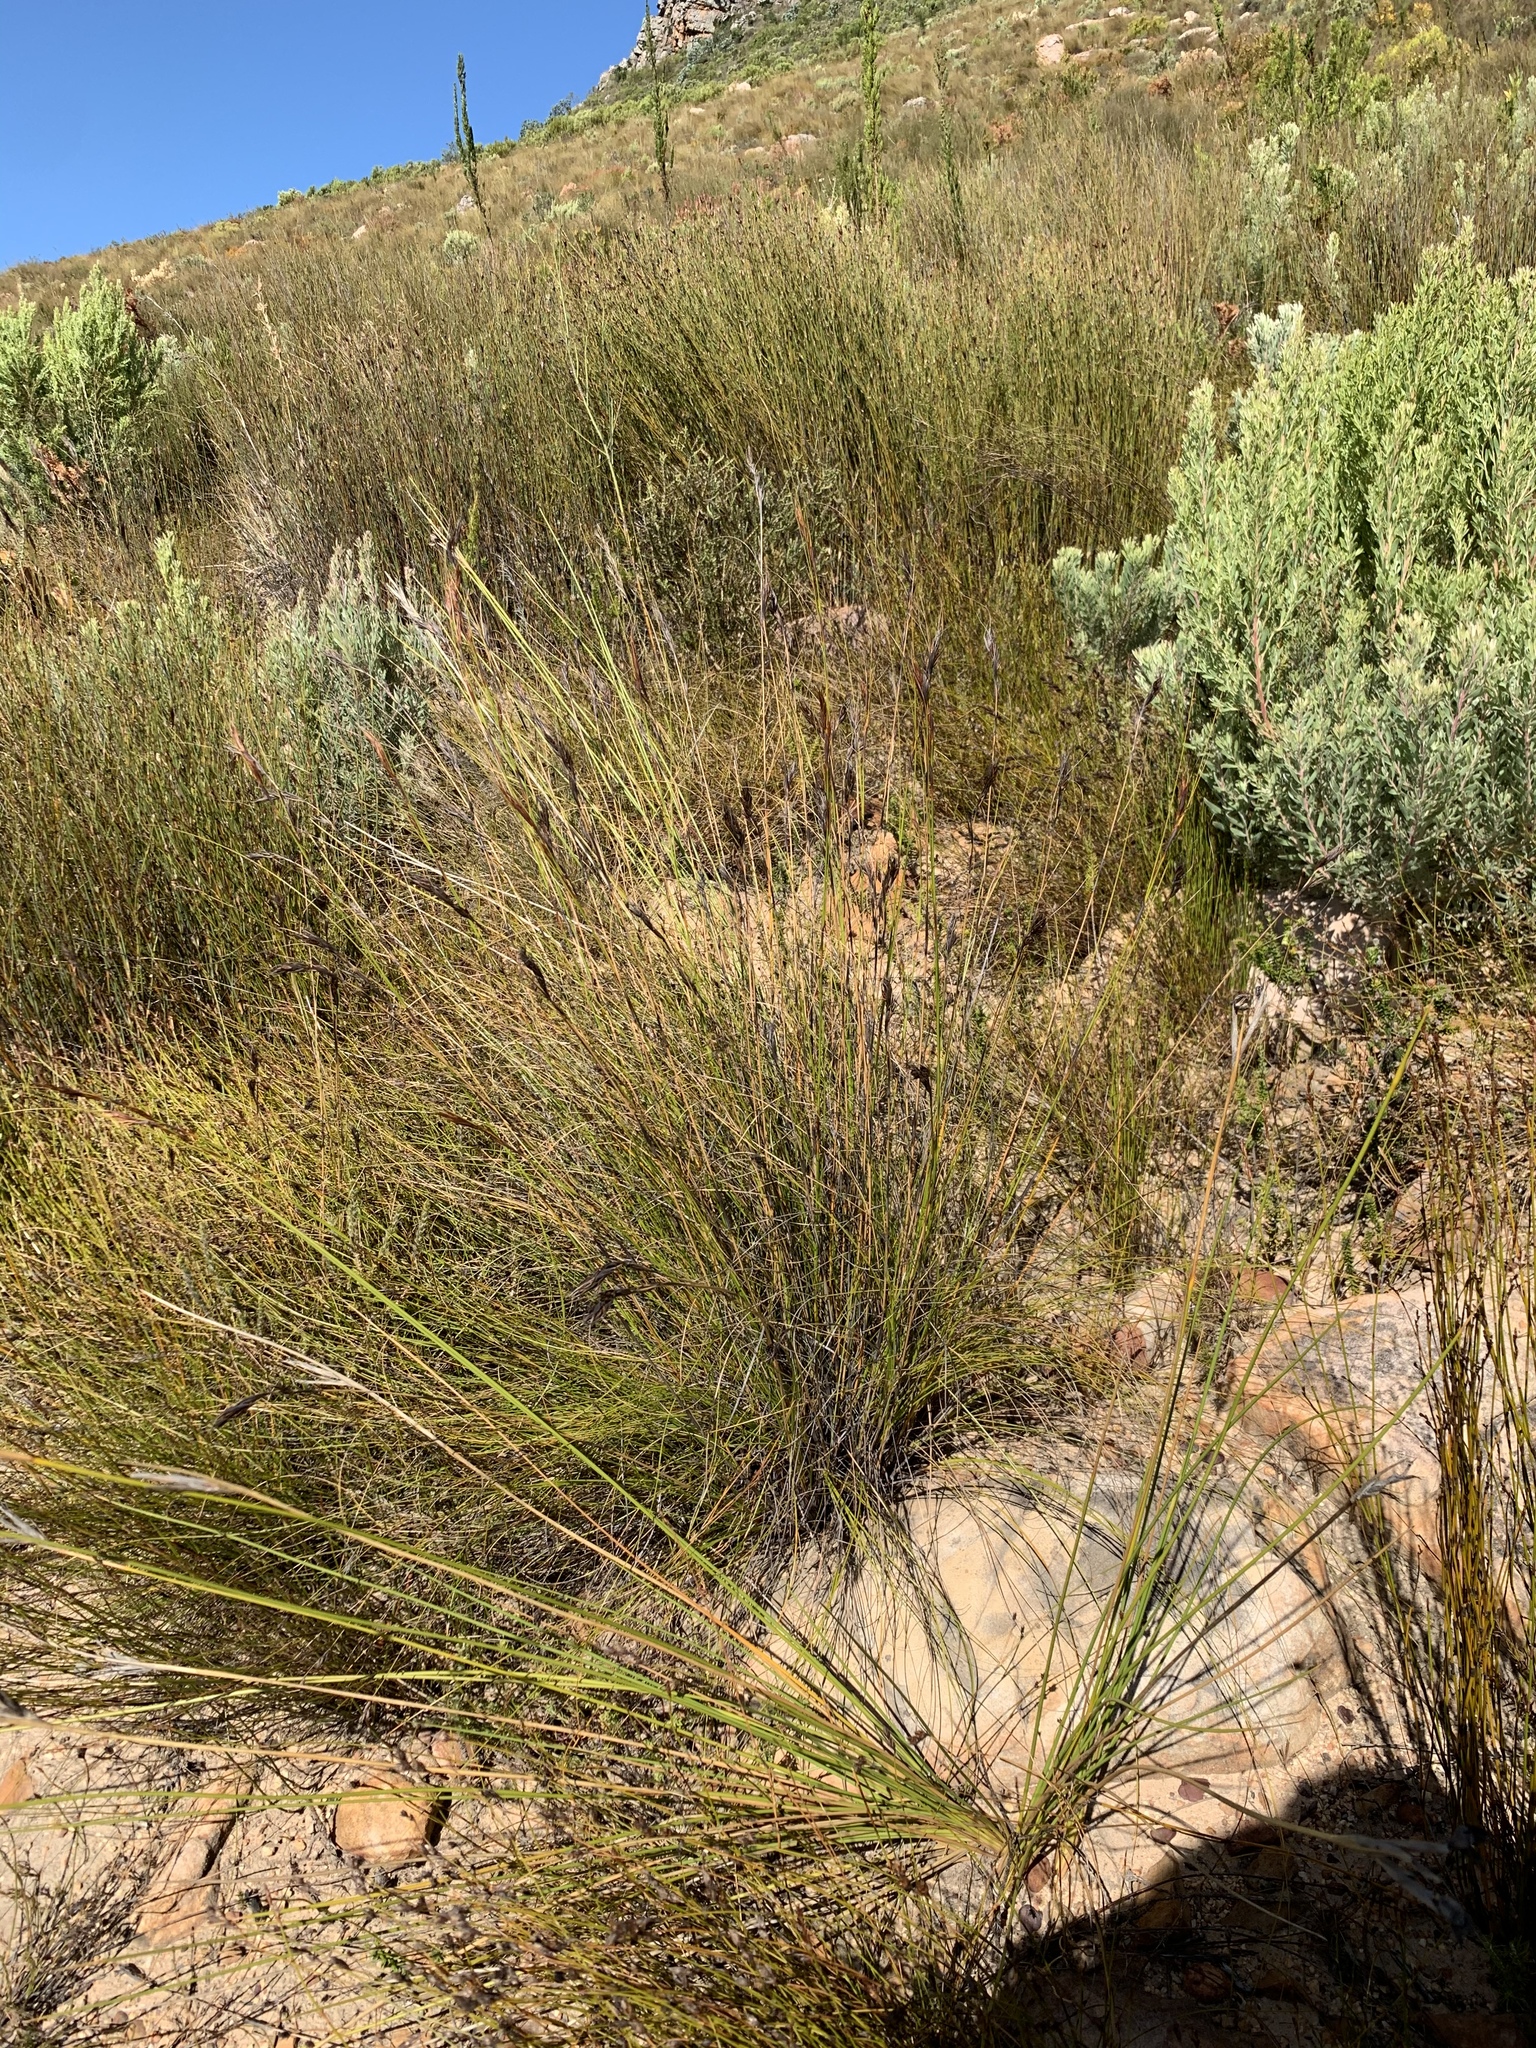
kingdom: Plantae
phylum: Tracheophyta
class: Liliopsida
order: Poales
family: Cyperaceae
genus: Tetraria
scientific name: Tetraria ustulata
